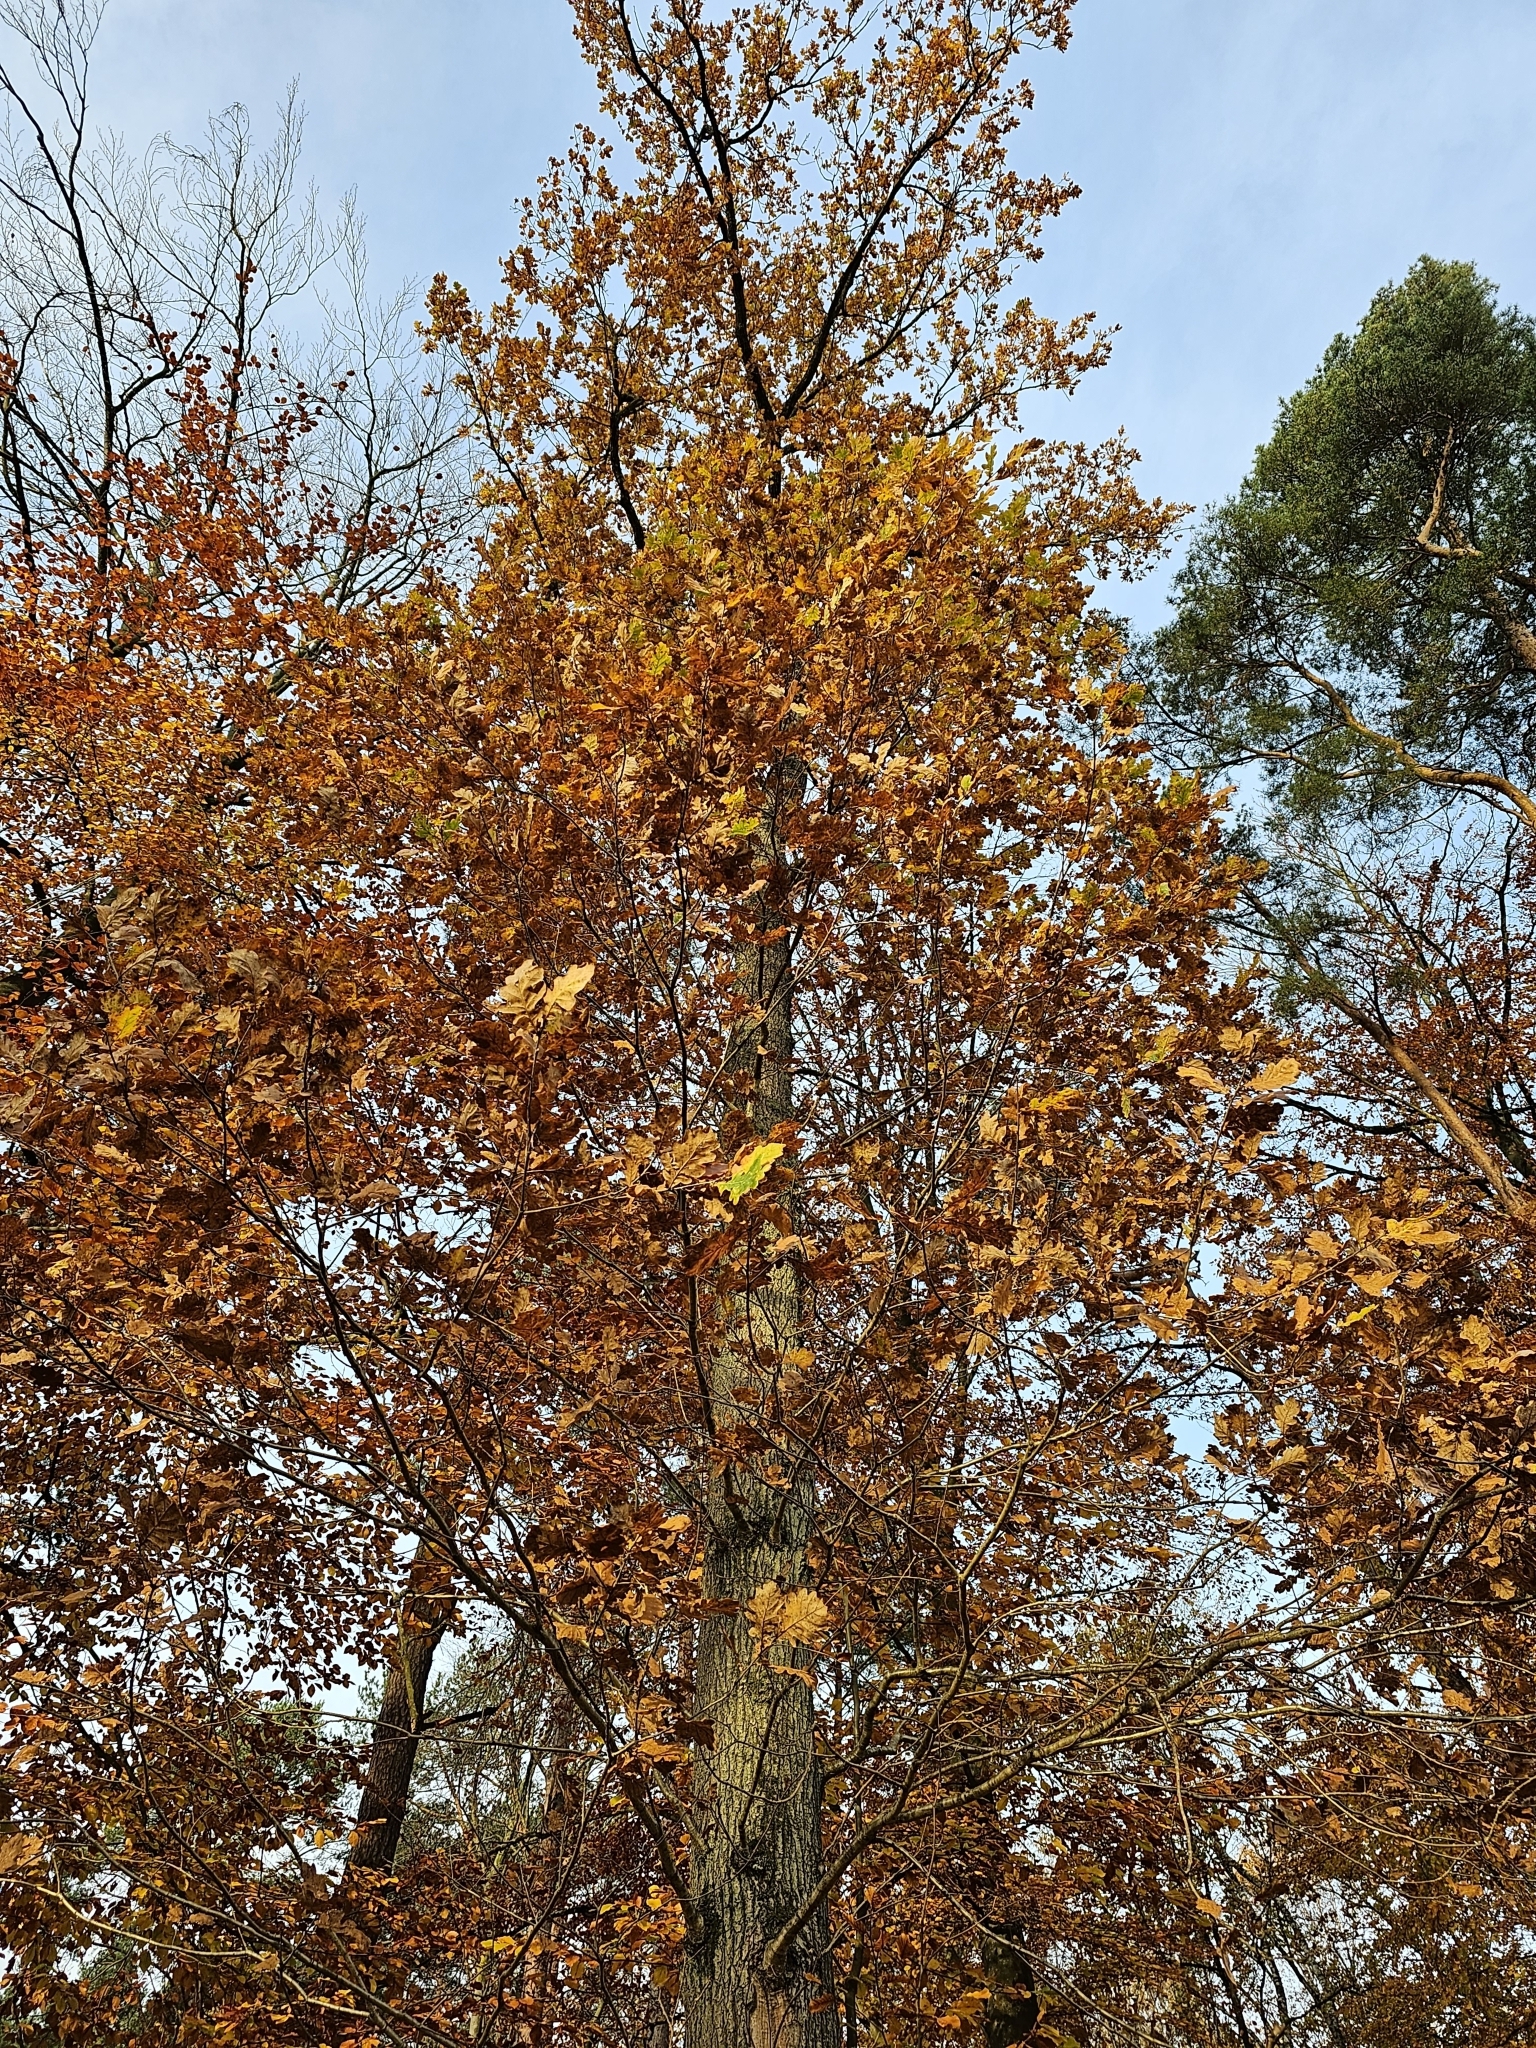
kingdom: Plantae
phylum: Tracheophyta
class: Magnoliopsida
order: Fagales
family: Fagaceae
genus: Quercus
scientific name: Quercus robur
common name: Pedunculate oak
